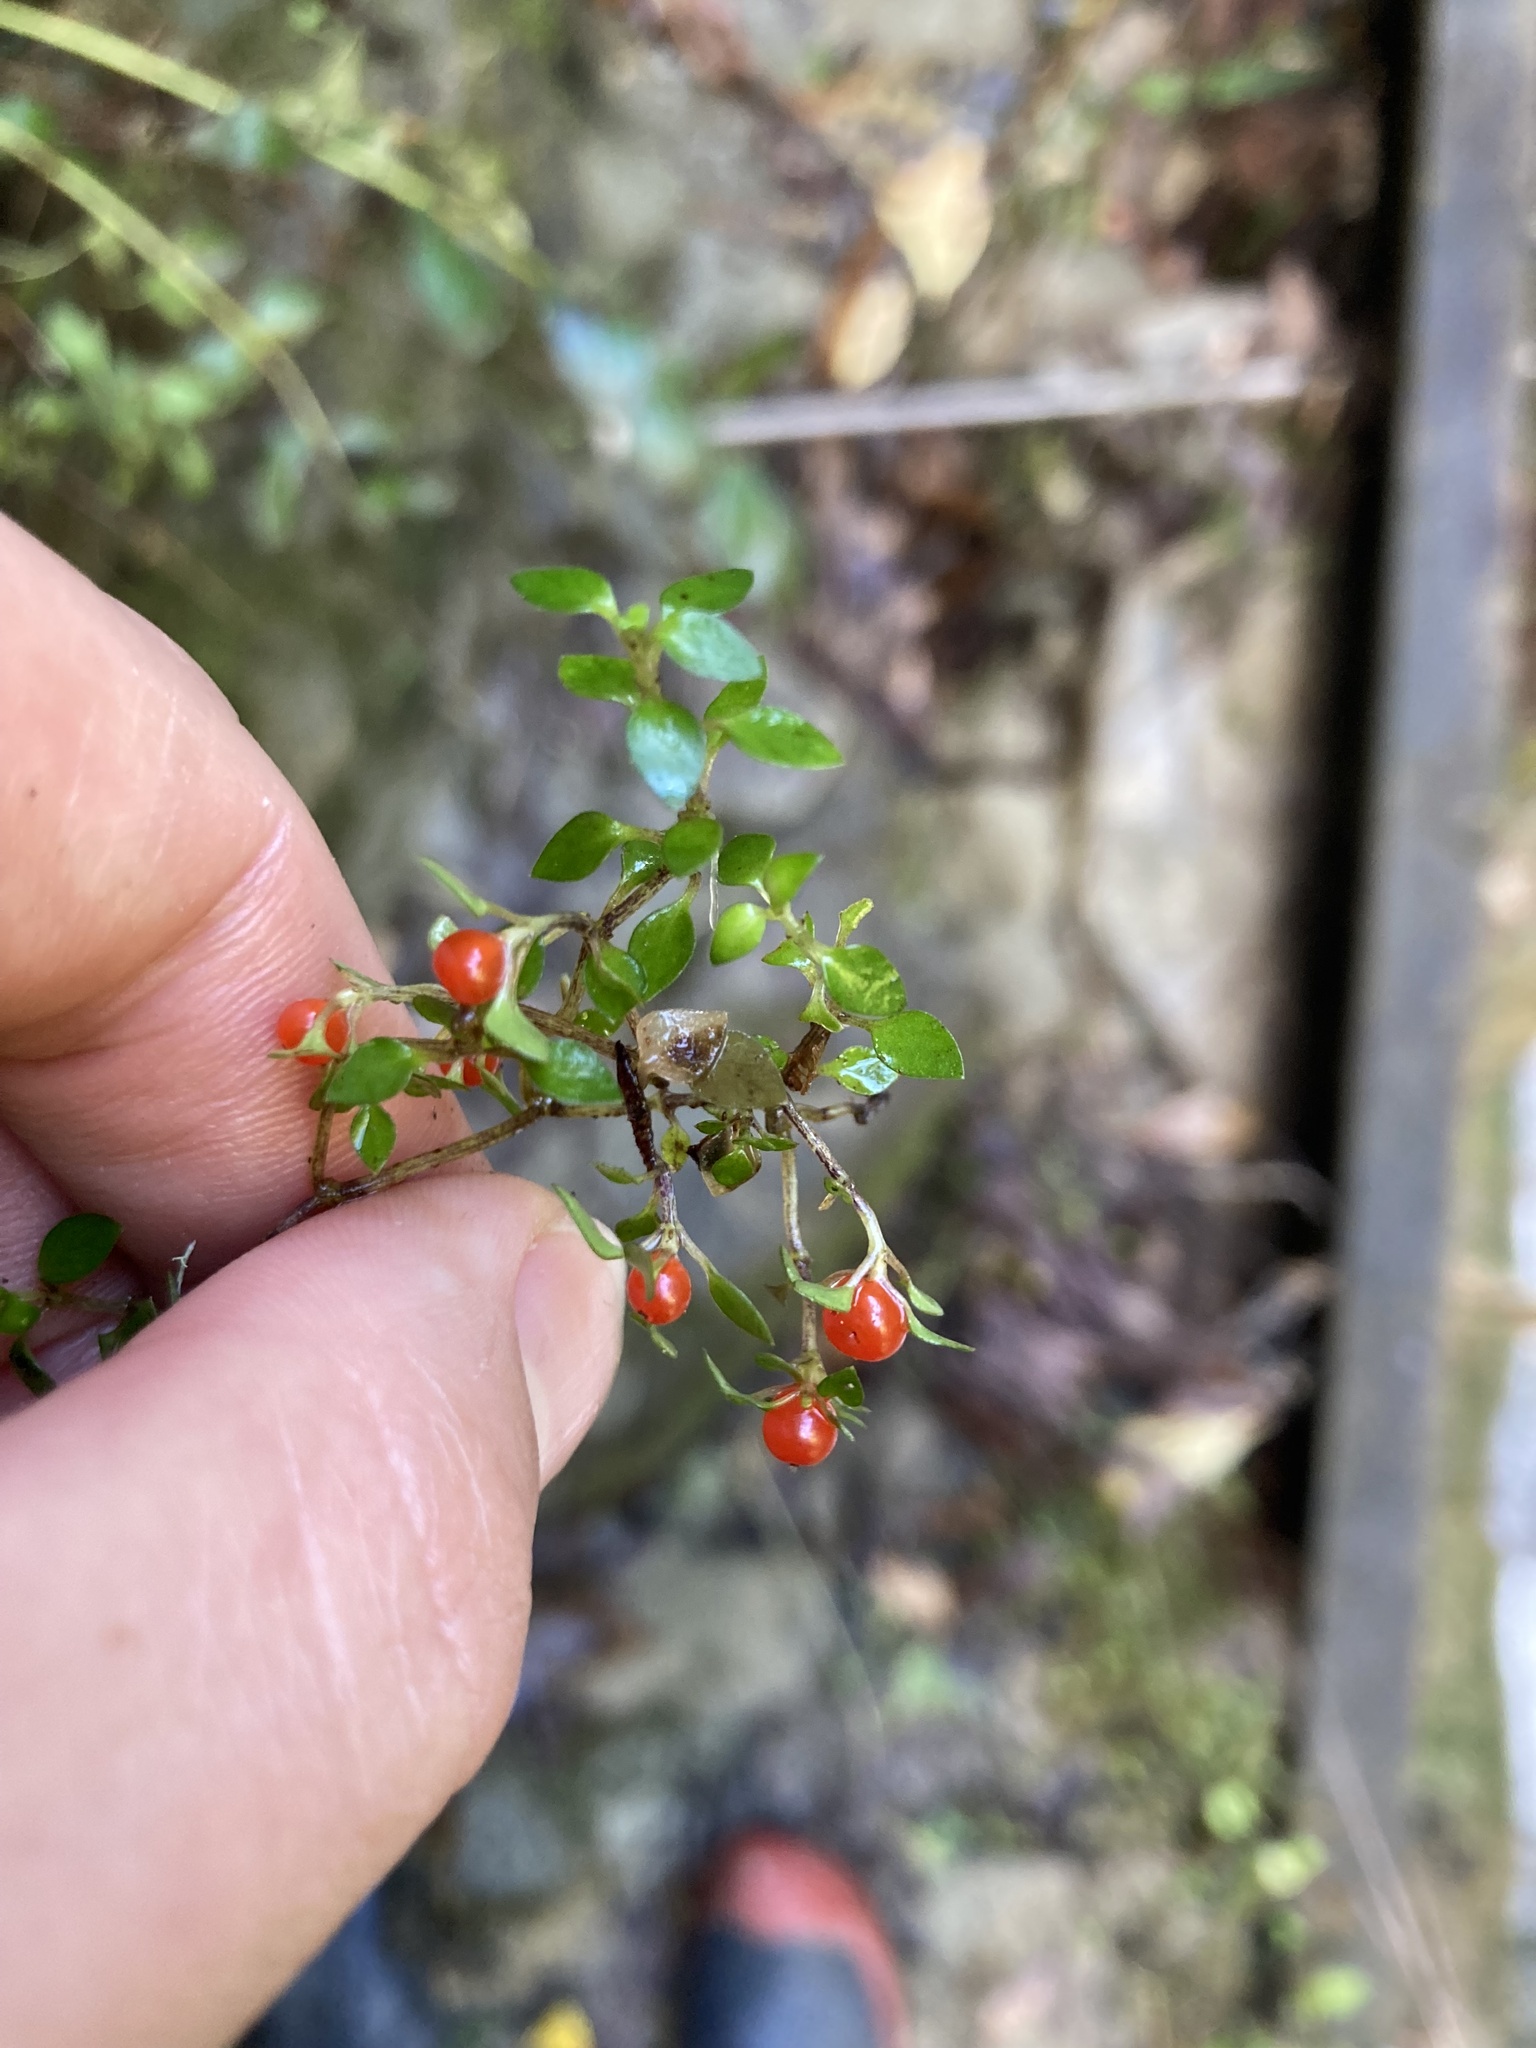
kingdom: Plantae
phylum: Tracheophyta
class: Magnoliopsida
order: Gentianales
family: Rubiaceae
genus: Nertera
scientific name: Nertera granadensis
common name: Beadplant
